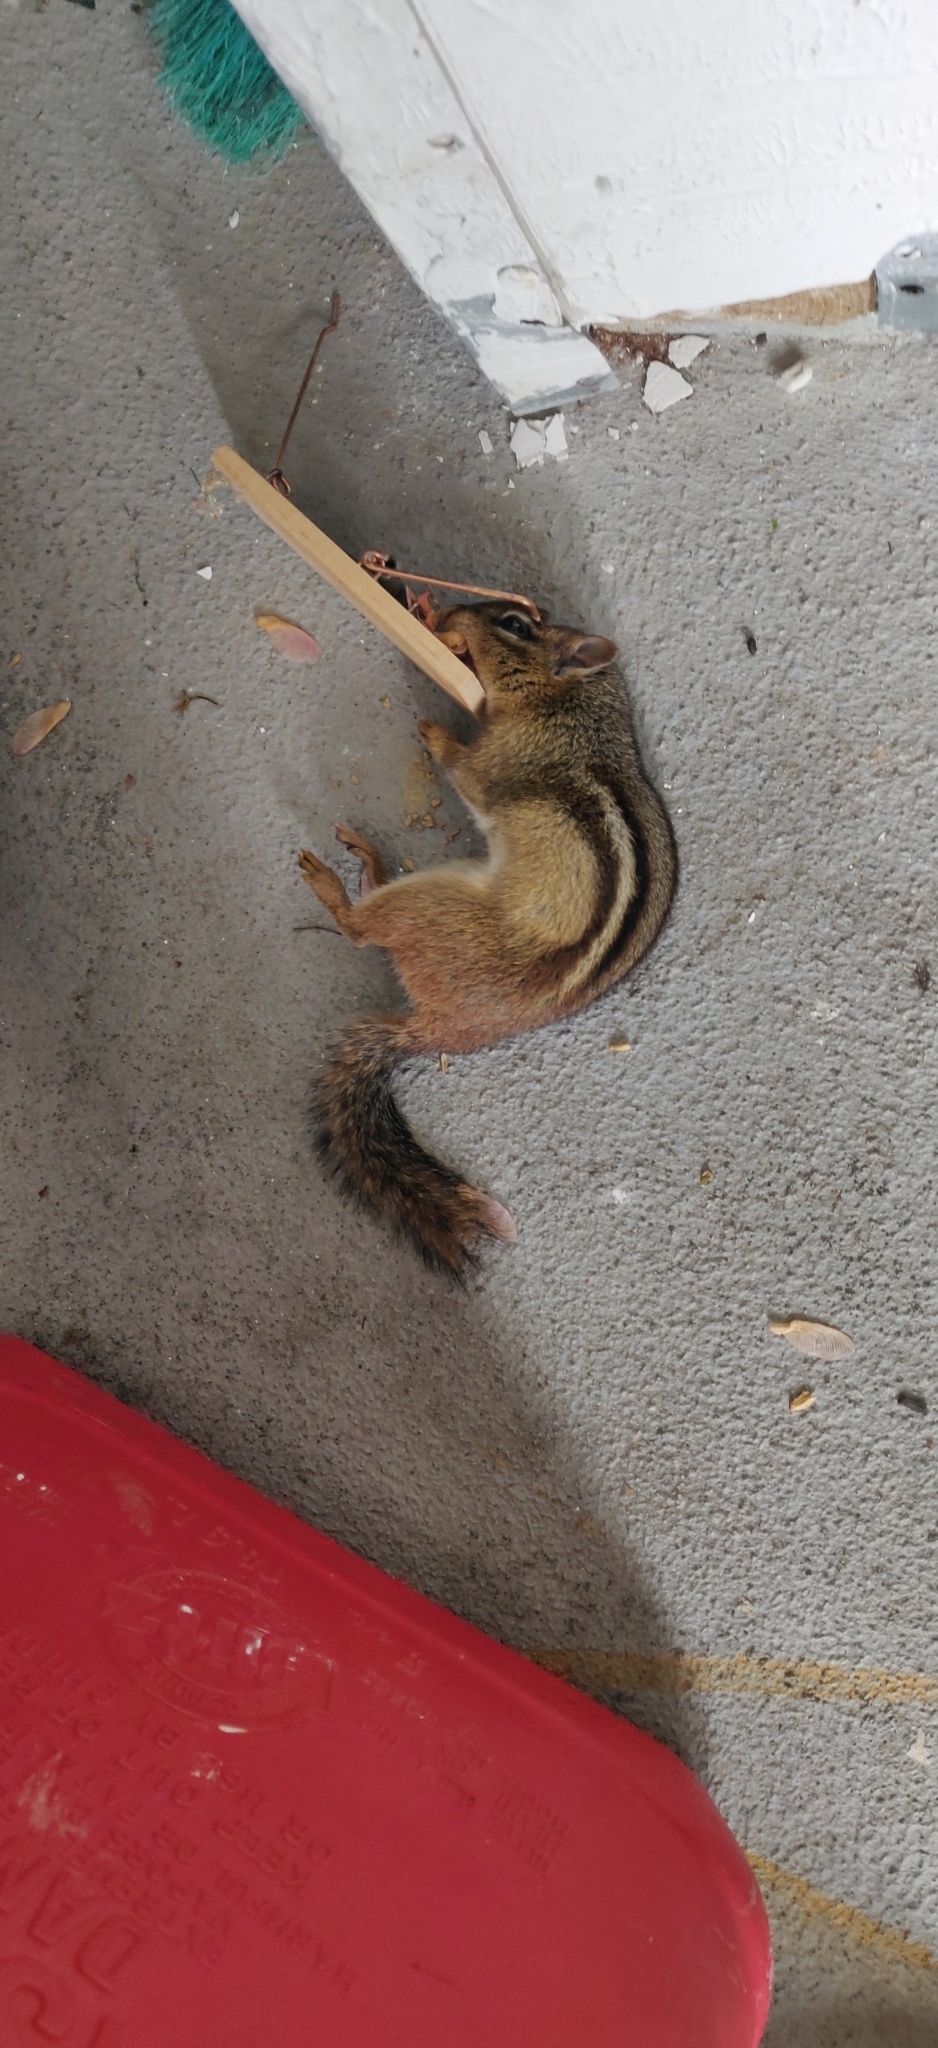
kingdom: Animalia
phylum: Chordata
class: Mammalia
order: Rodentia
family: Sciuridae
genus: Tamias
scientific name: Tamias striatus
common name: Eastern chipmunk
